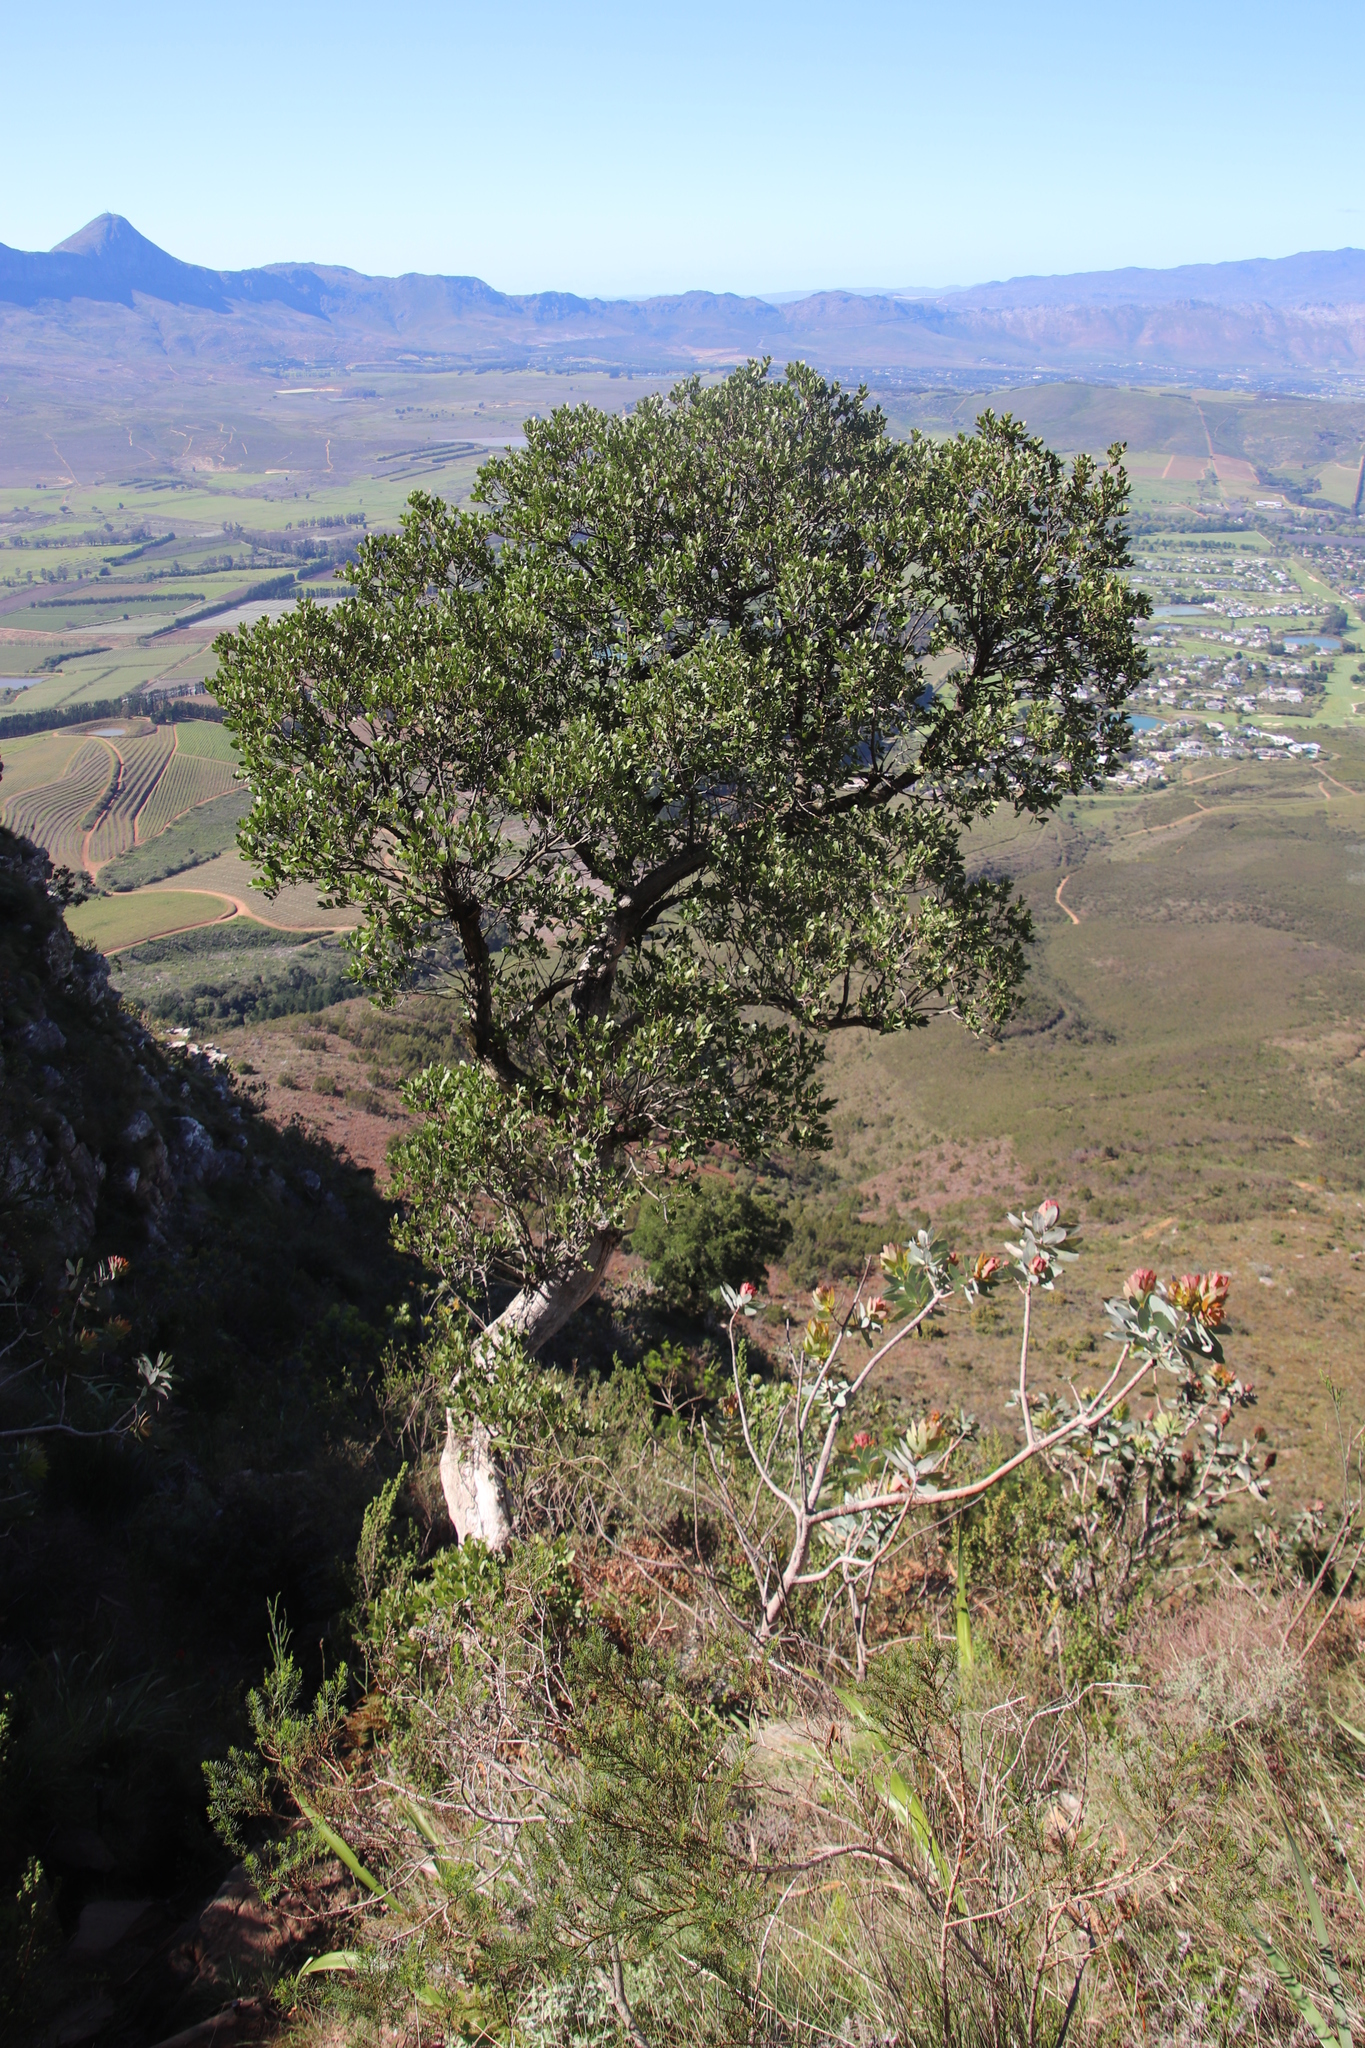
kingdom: Plantae
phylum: Tracheophyta
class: Magnoliopsida
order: Proteales
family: Proteaceae
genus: Protea
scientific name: Protea nitida
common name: Tree protea
